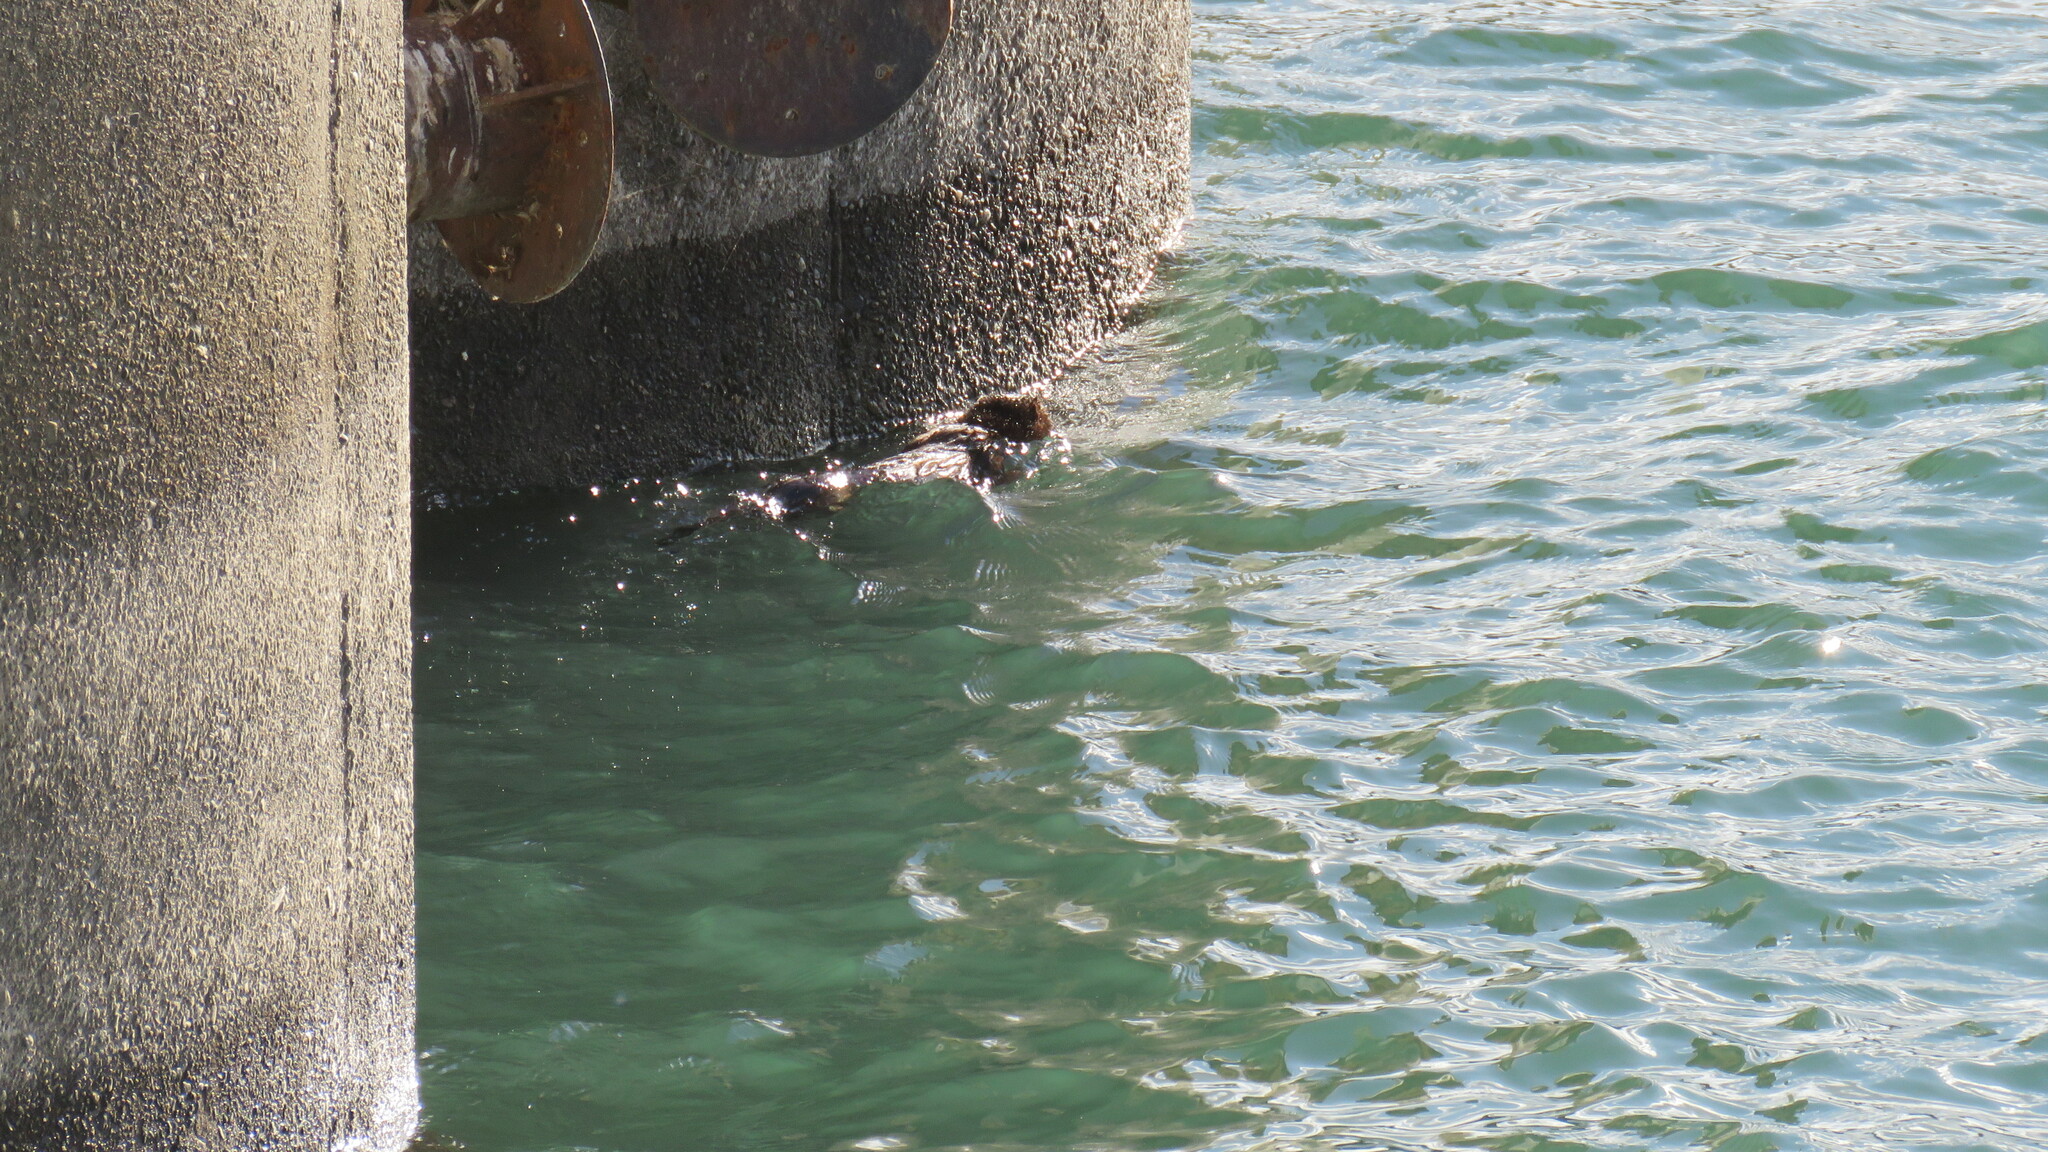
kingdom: Animalia
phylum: Chordata
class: Mammalia
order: Carnivora
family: Mustelidae
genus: Mustela
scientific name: Mustela
